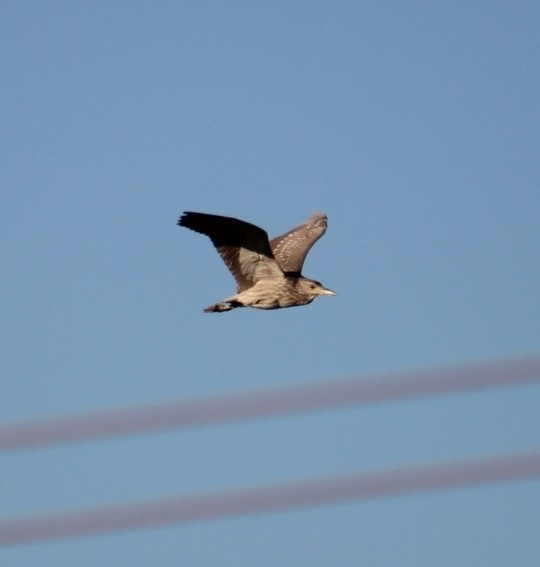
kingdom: Animalia
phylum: Chordata
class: Aves
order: Pelecaniformes
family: Ardeidae
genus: Nycticorax
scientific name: Nycticorax nycticorax
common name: Black-crowned night heron
